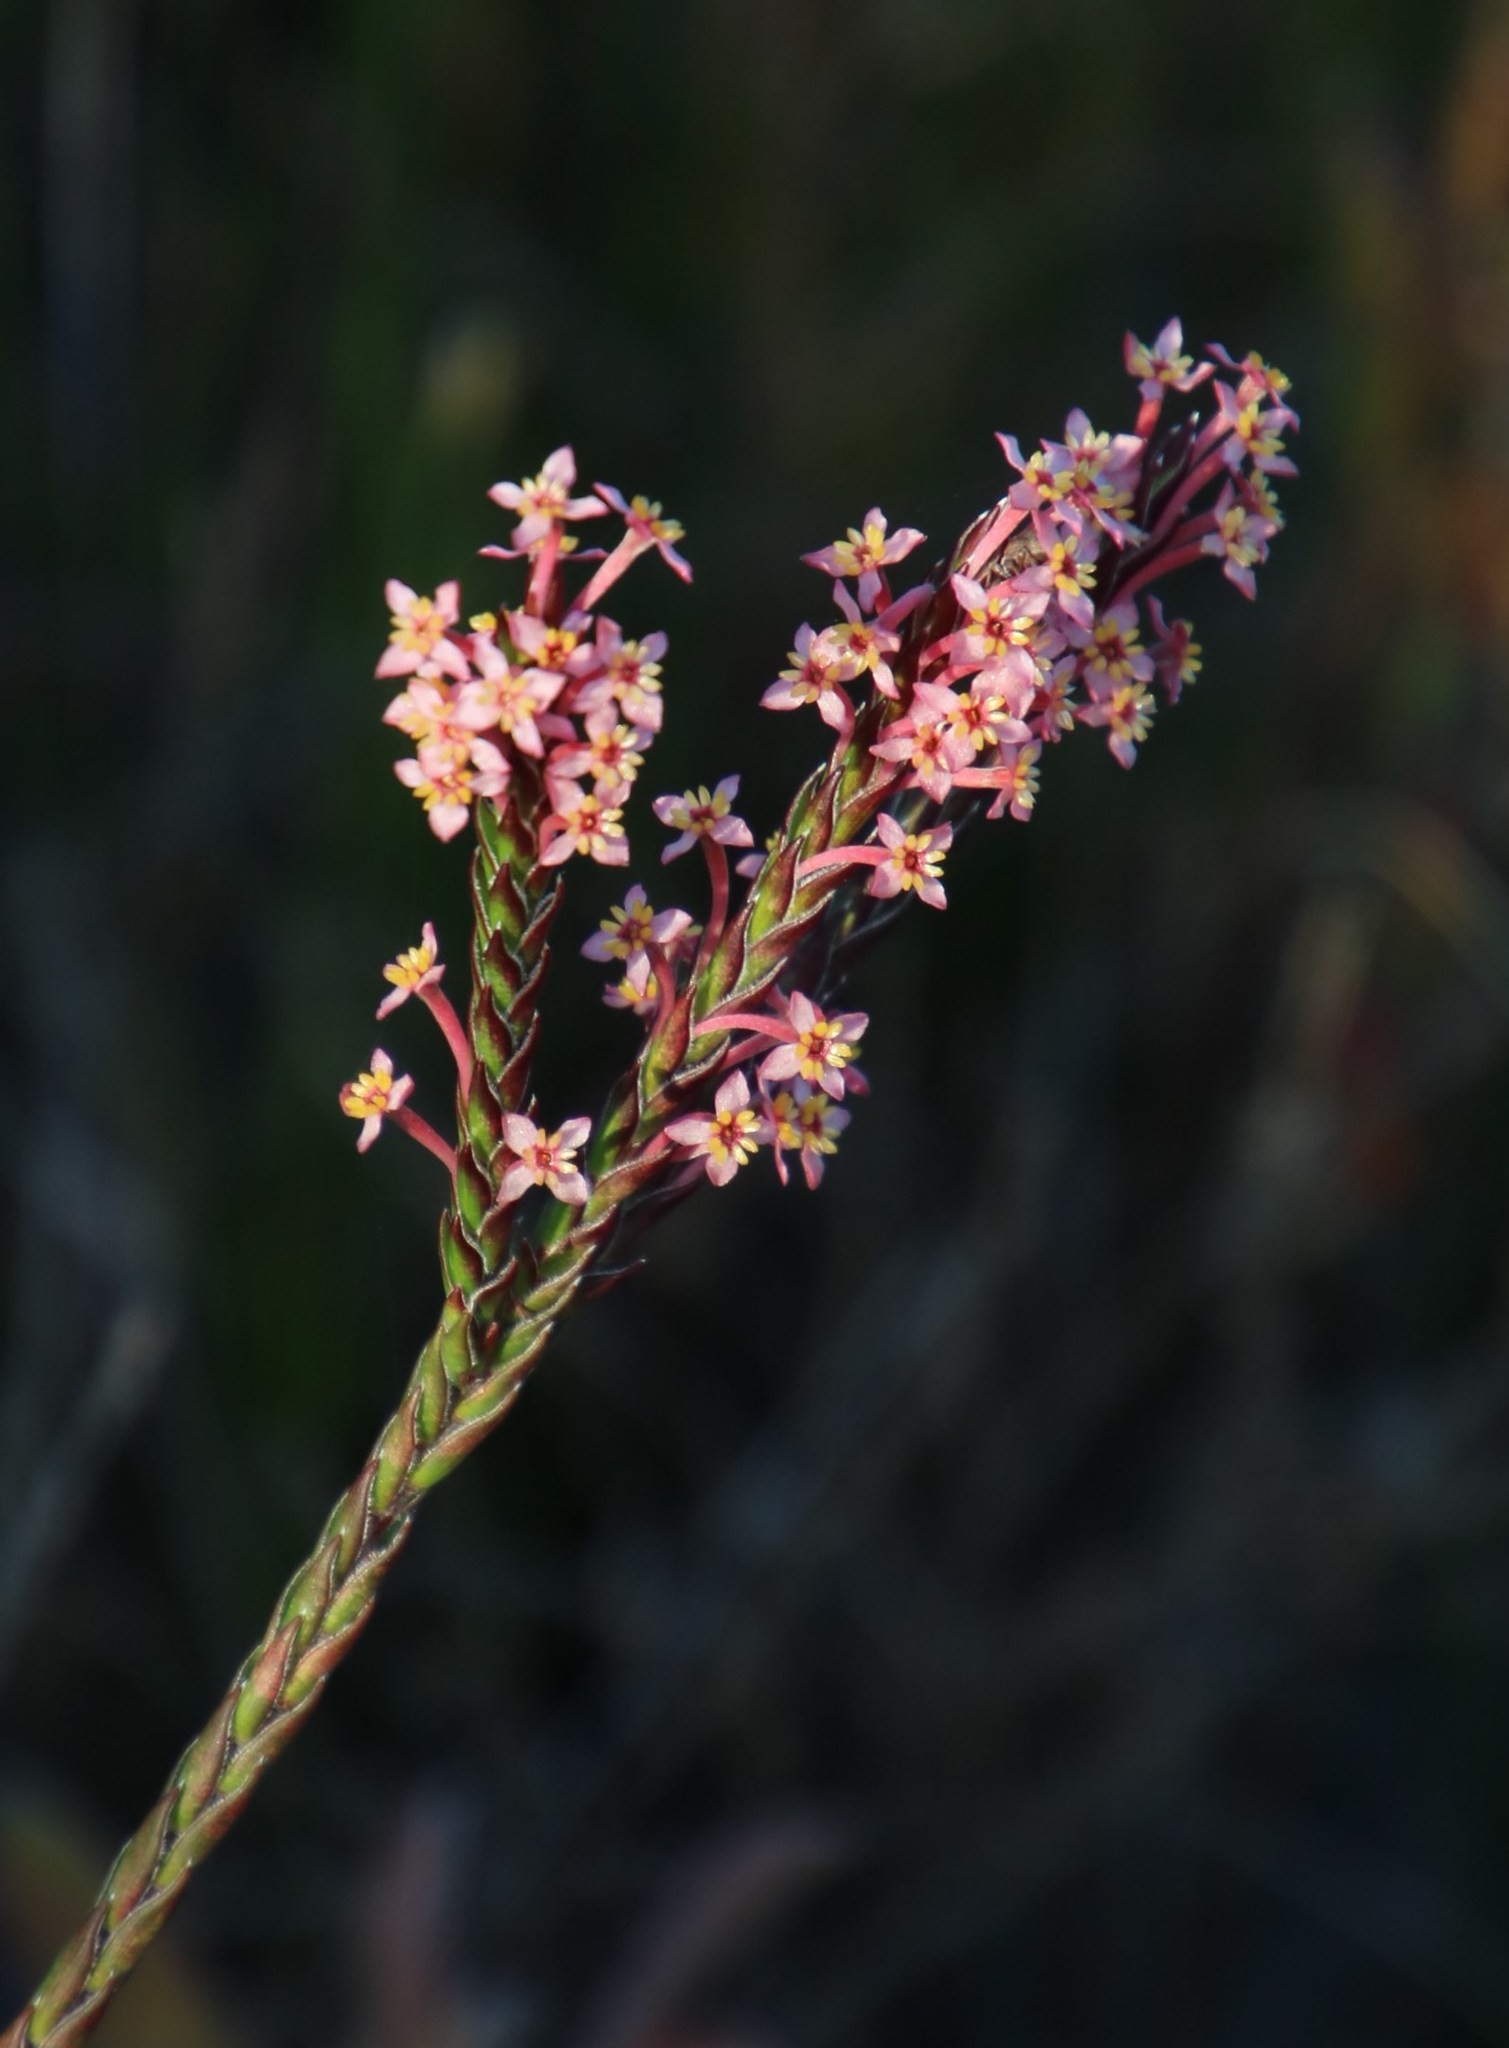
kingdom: Plantae
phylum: Tracheophyta
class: Magnoliopsida
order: Malvales
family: Thymelaeaceae
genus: Struthiola
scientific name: Struthiola ciliata
